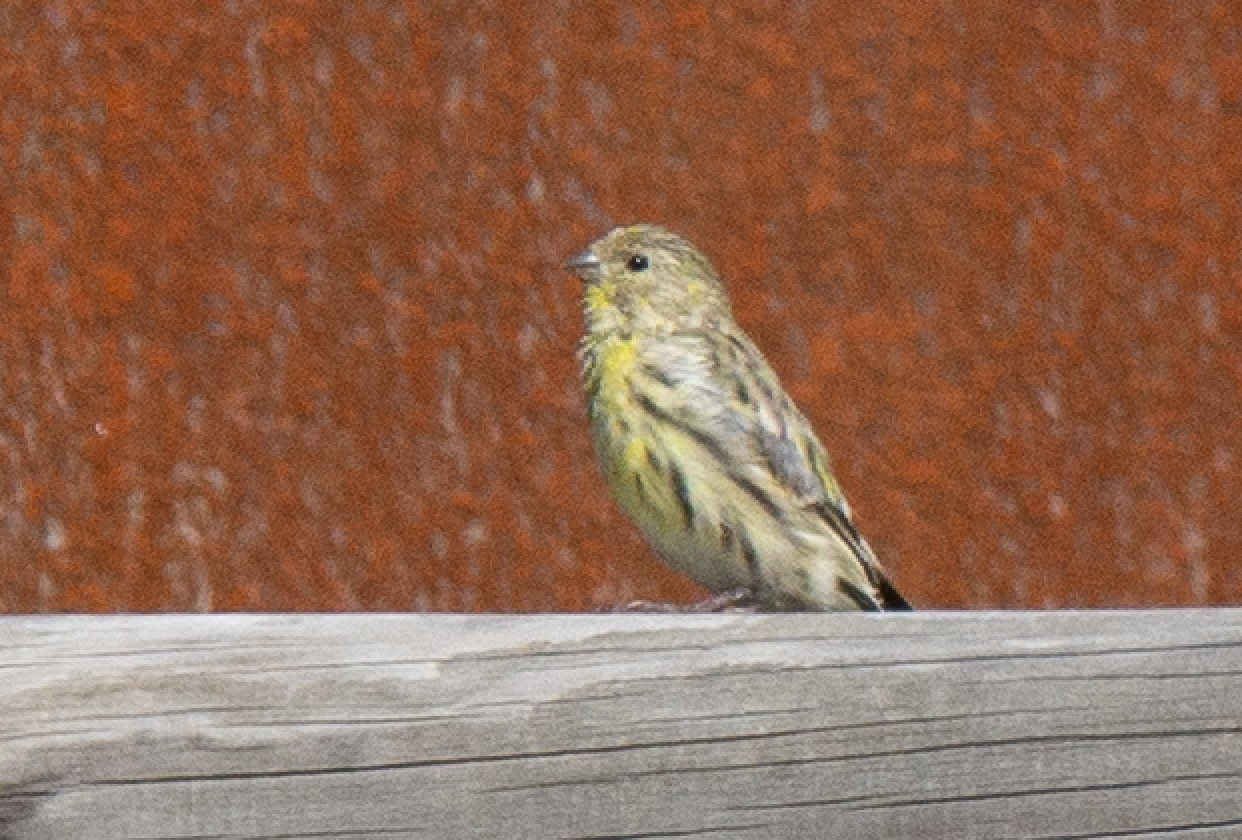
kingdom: Animalia
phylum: Chordata
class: Aves
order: Passeriformes
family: Fringillidae
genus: Serinus
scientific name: Serinus serinus
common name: European serin
